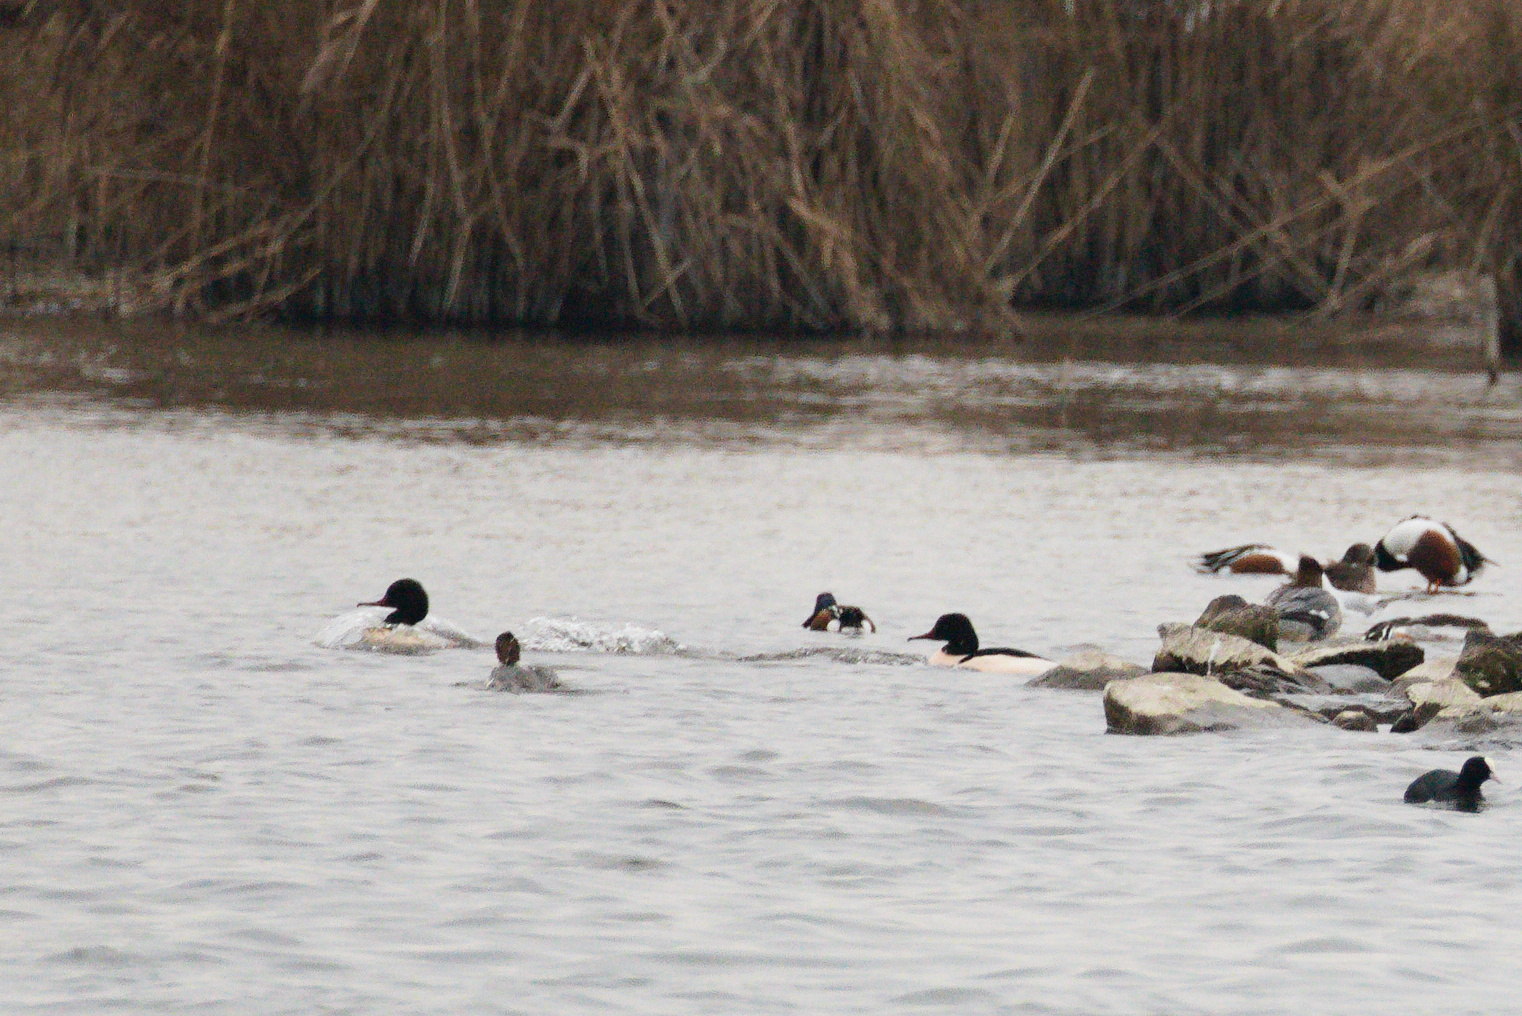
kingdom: Animalia
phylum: Chordata
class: Aves
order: Anseriformes
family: Anatidae
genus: Mergus
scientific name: Mergus merganser
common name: Common merganser
